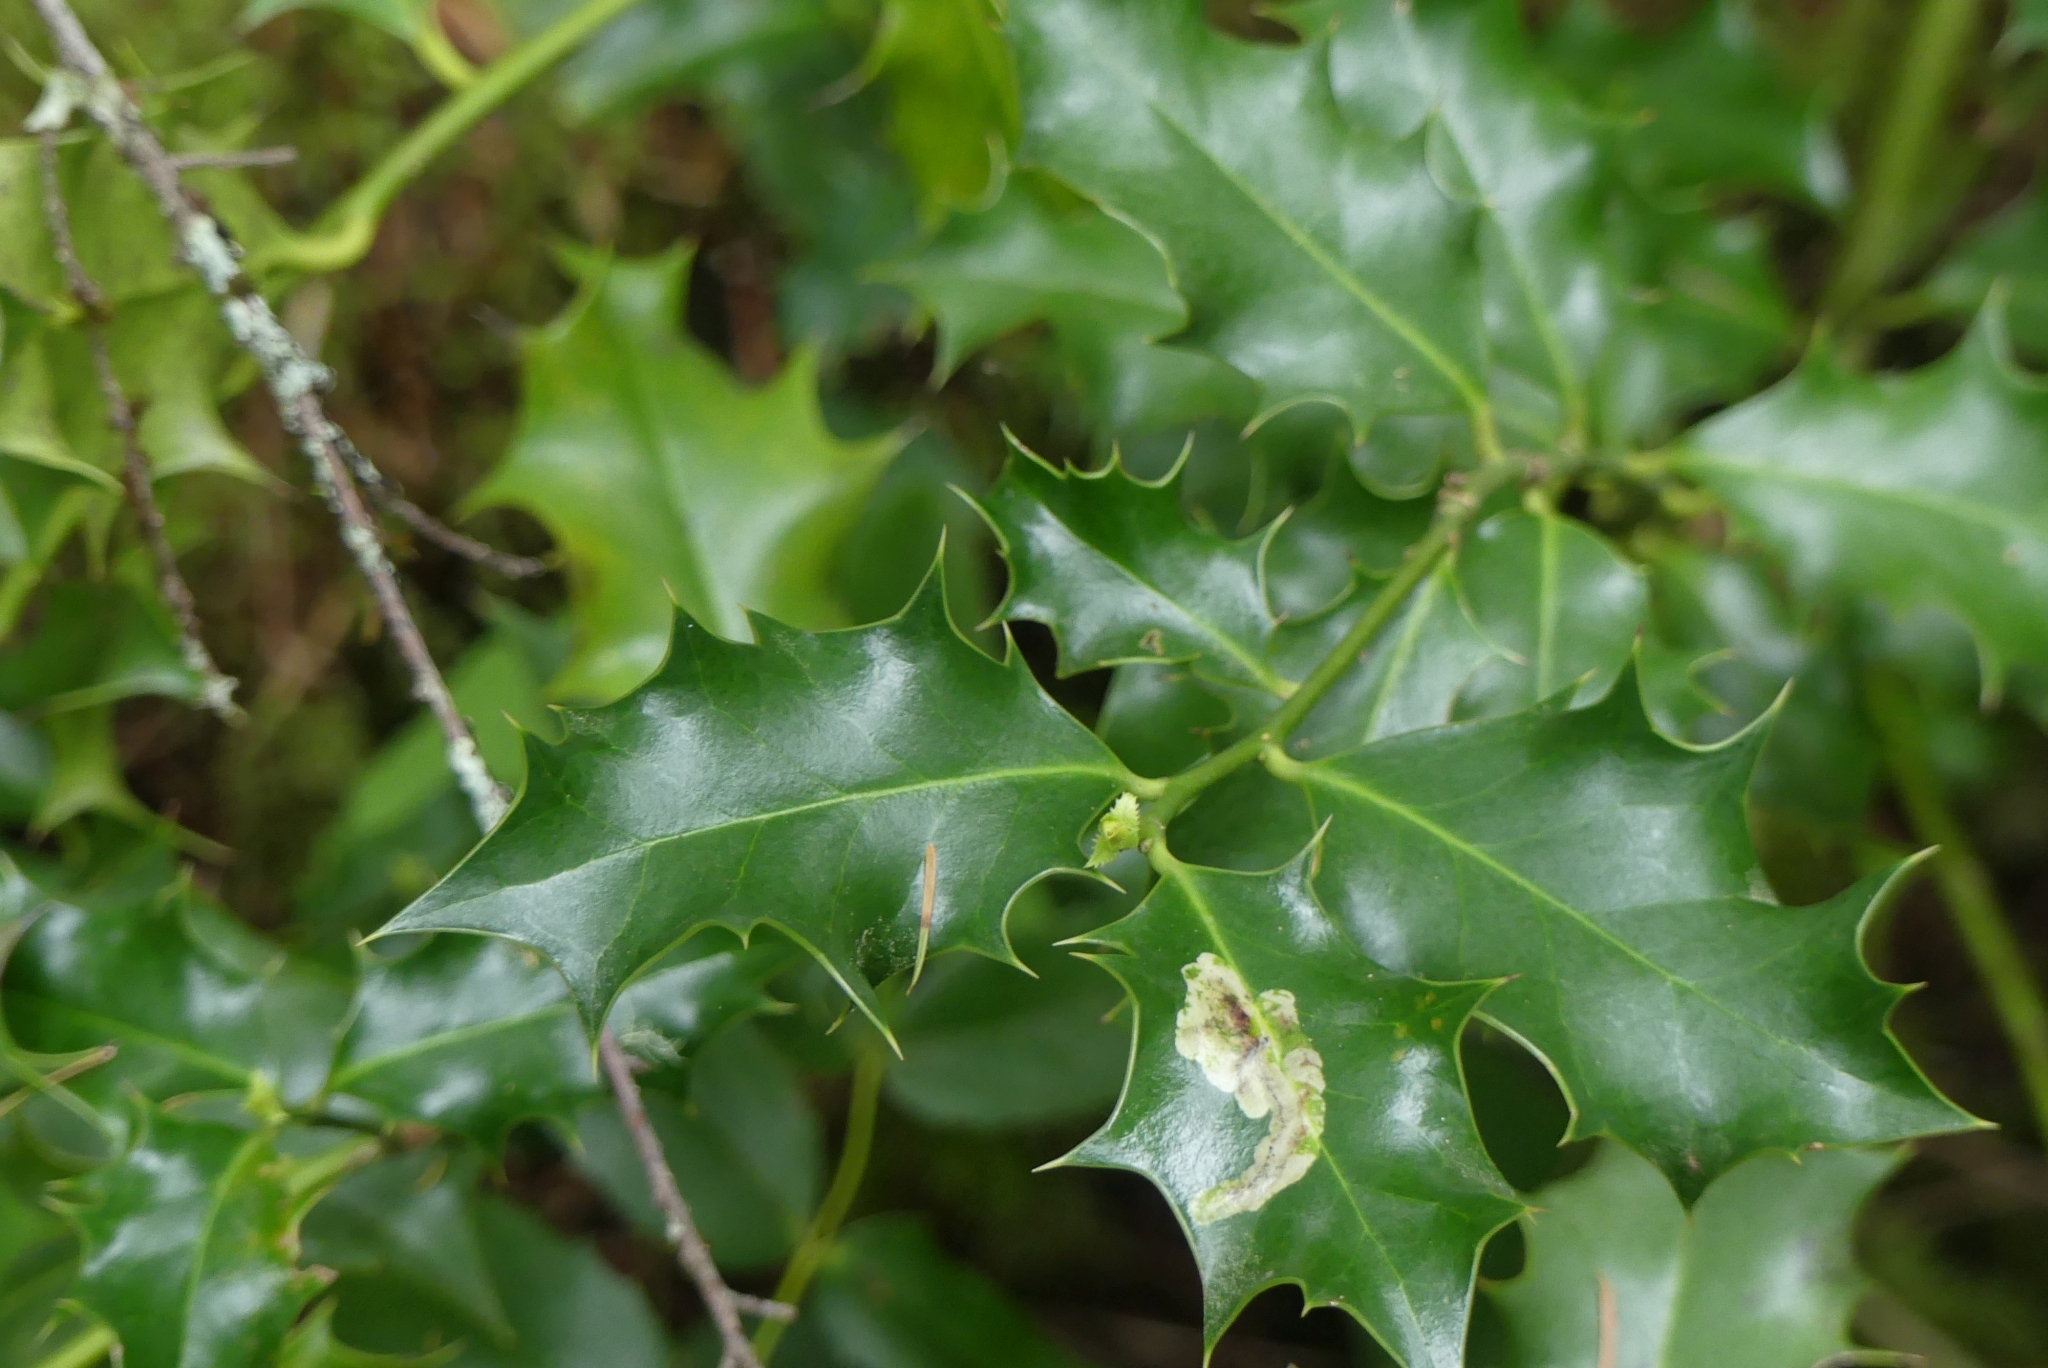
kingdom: Plantae
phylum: Tracheophyta
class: Magnoliopsida
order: Aquifoliales
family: Aquifoliaceae
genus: Ilex
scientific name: Ilex aquifolium
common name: English holly
